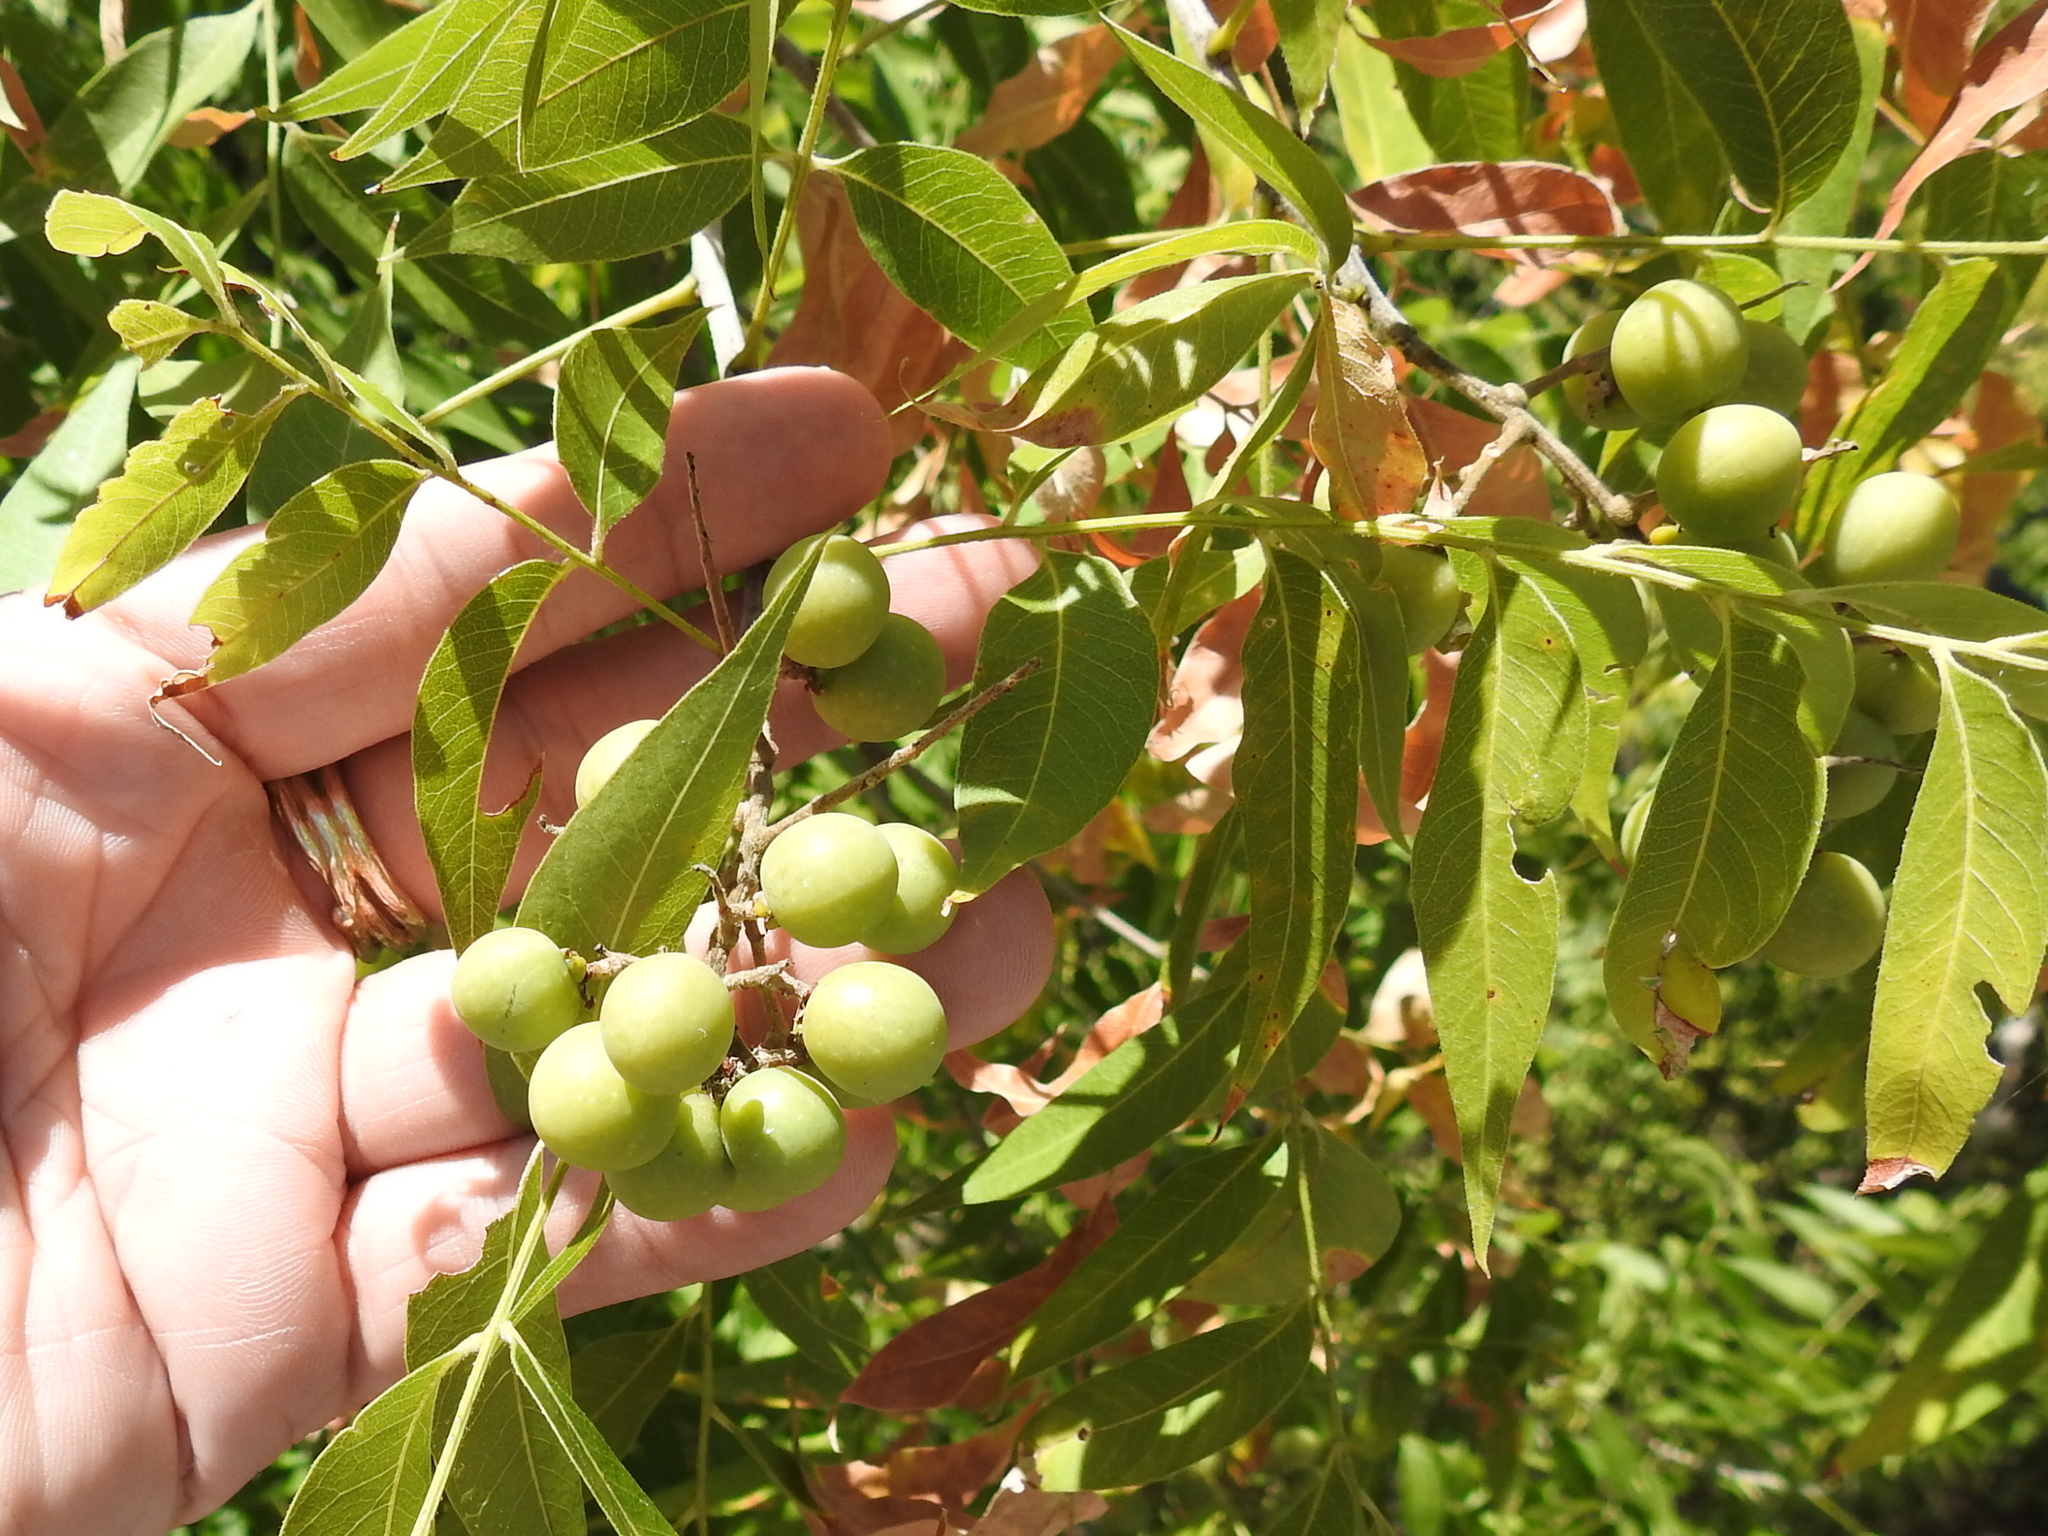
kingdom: Plantae
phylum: Tracheophyta
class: Magnoliopsida
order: Sapindales
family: Sapindaceae
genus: Sapindus
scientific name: Sapindus drummondii
